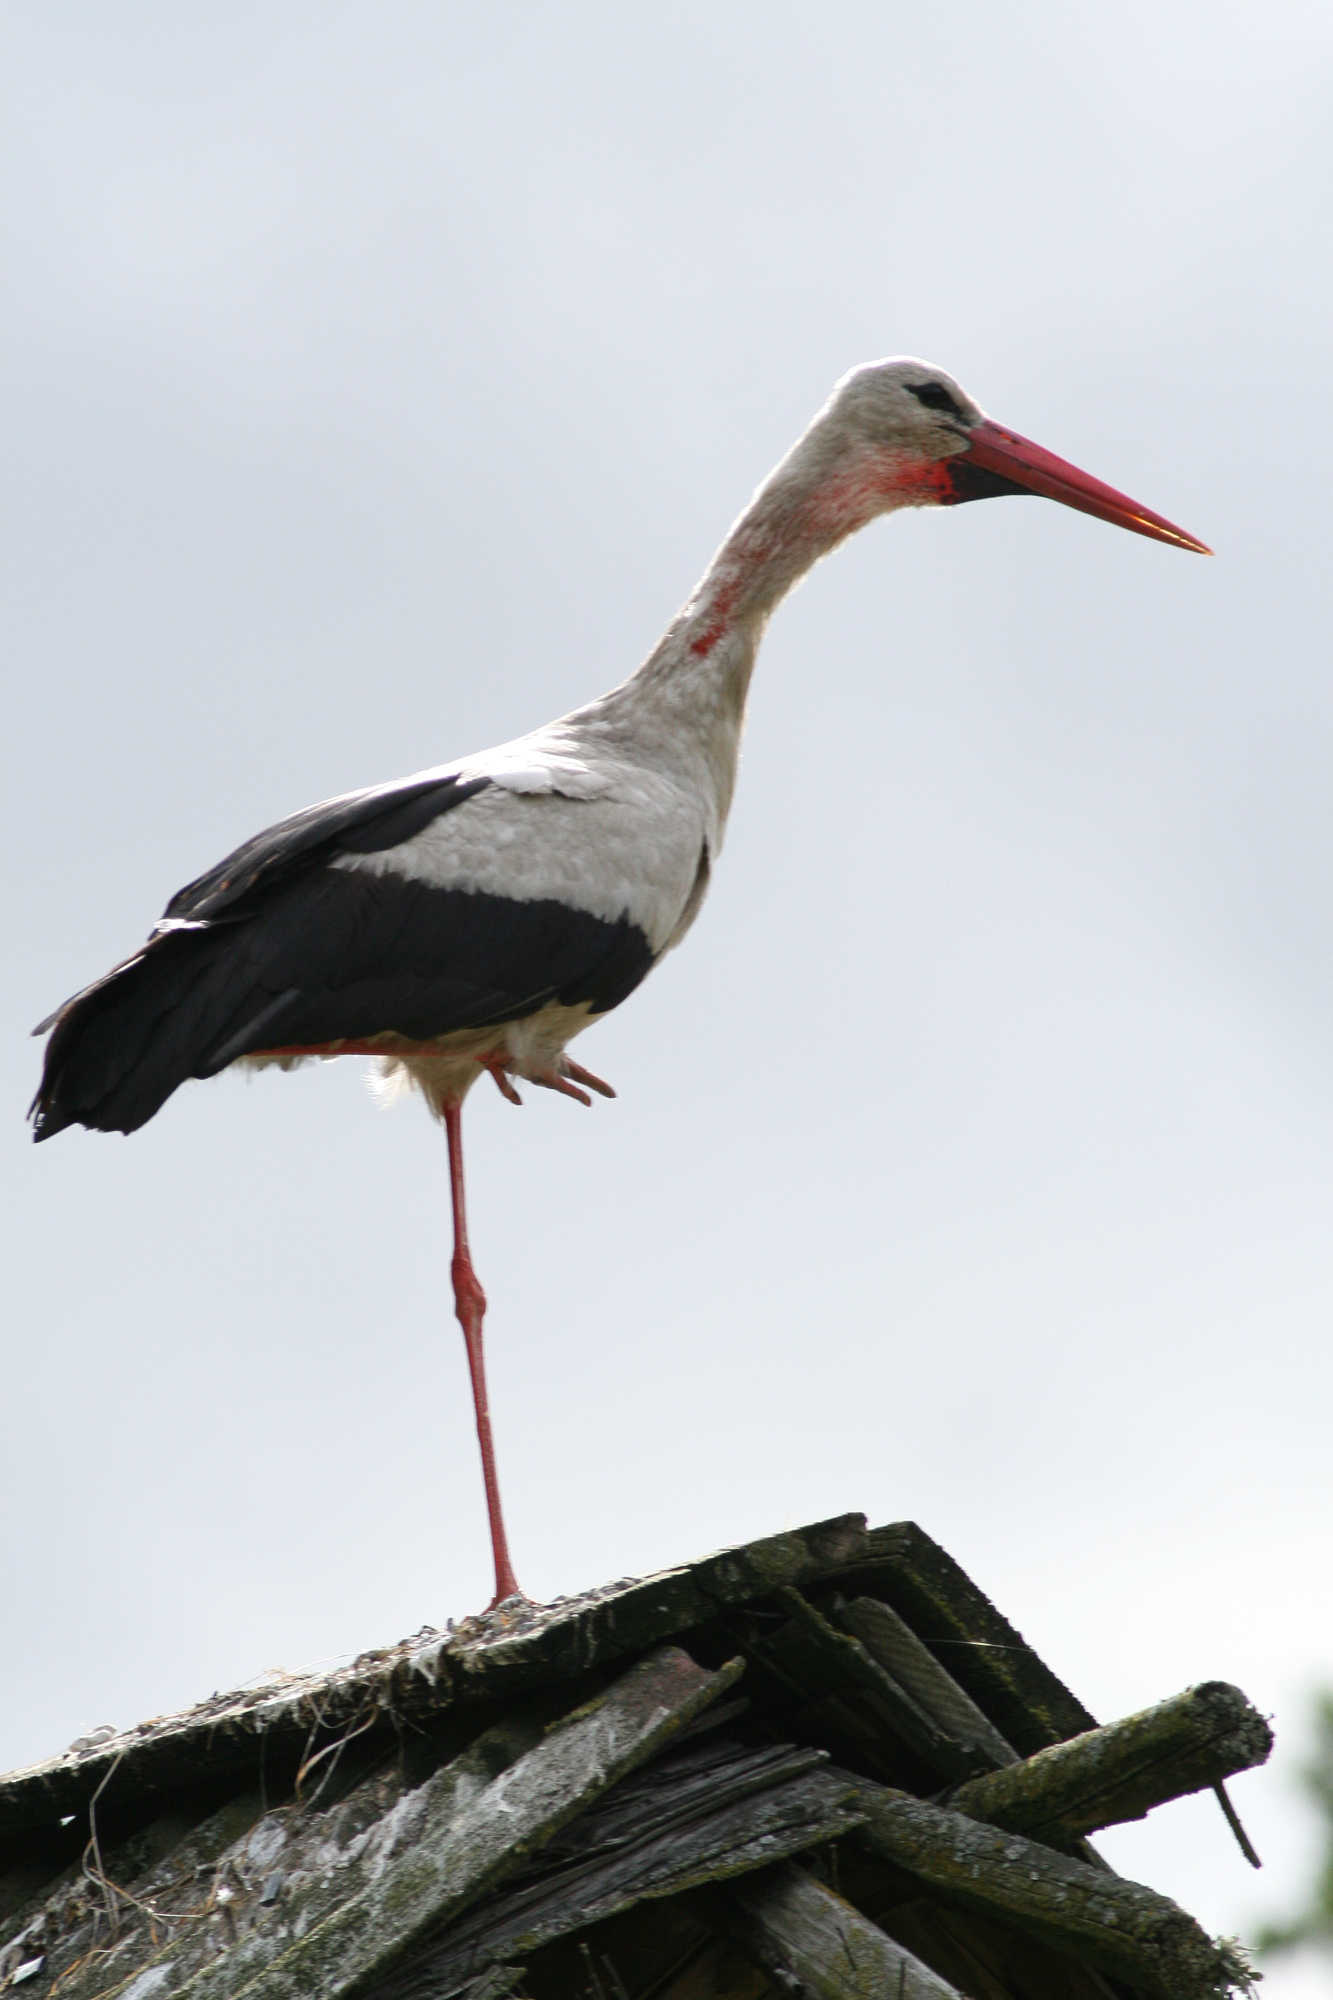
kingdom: Animalia
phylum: Chordata
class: Aves
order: Ciconiiformes
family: Ciconiidae
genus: Ciconia
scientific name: Ciconia ciconia
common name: White stork
